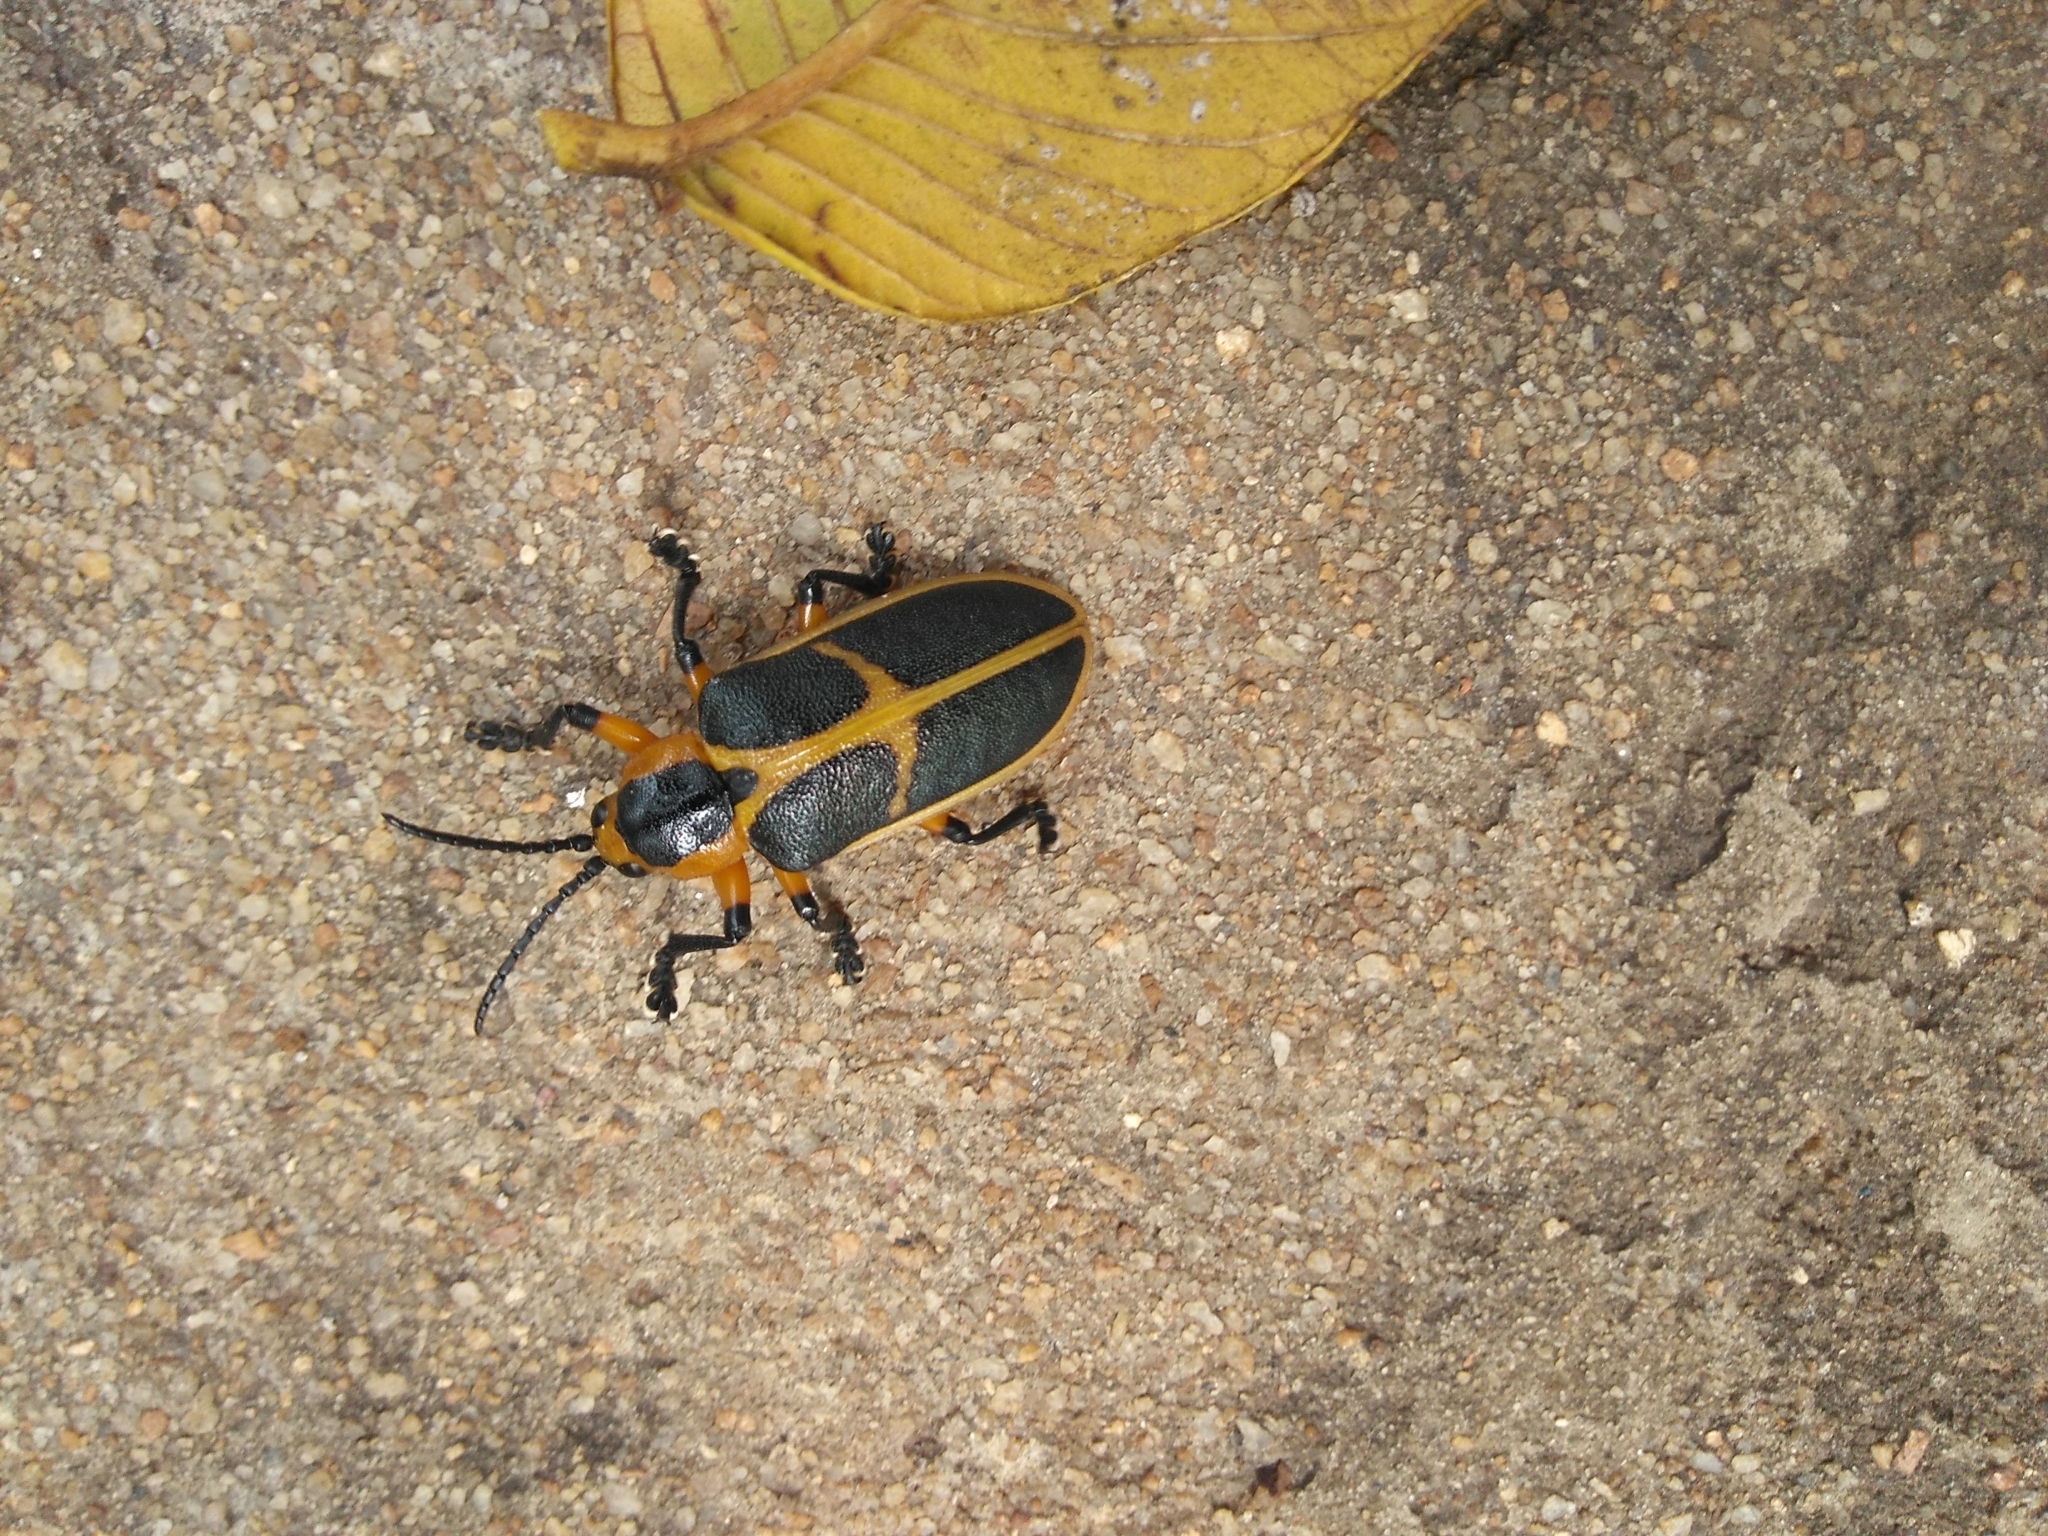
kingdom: Animalia
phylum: Arthropoda
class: Insecta
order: Coleoptera
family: Chrysomelidae
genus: Mecistomela
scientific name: Mecistomela marginata
